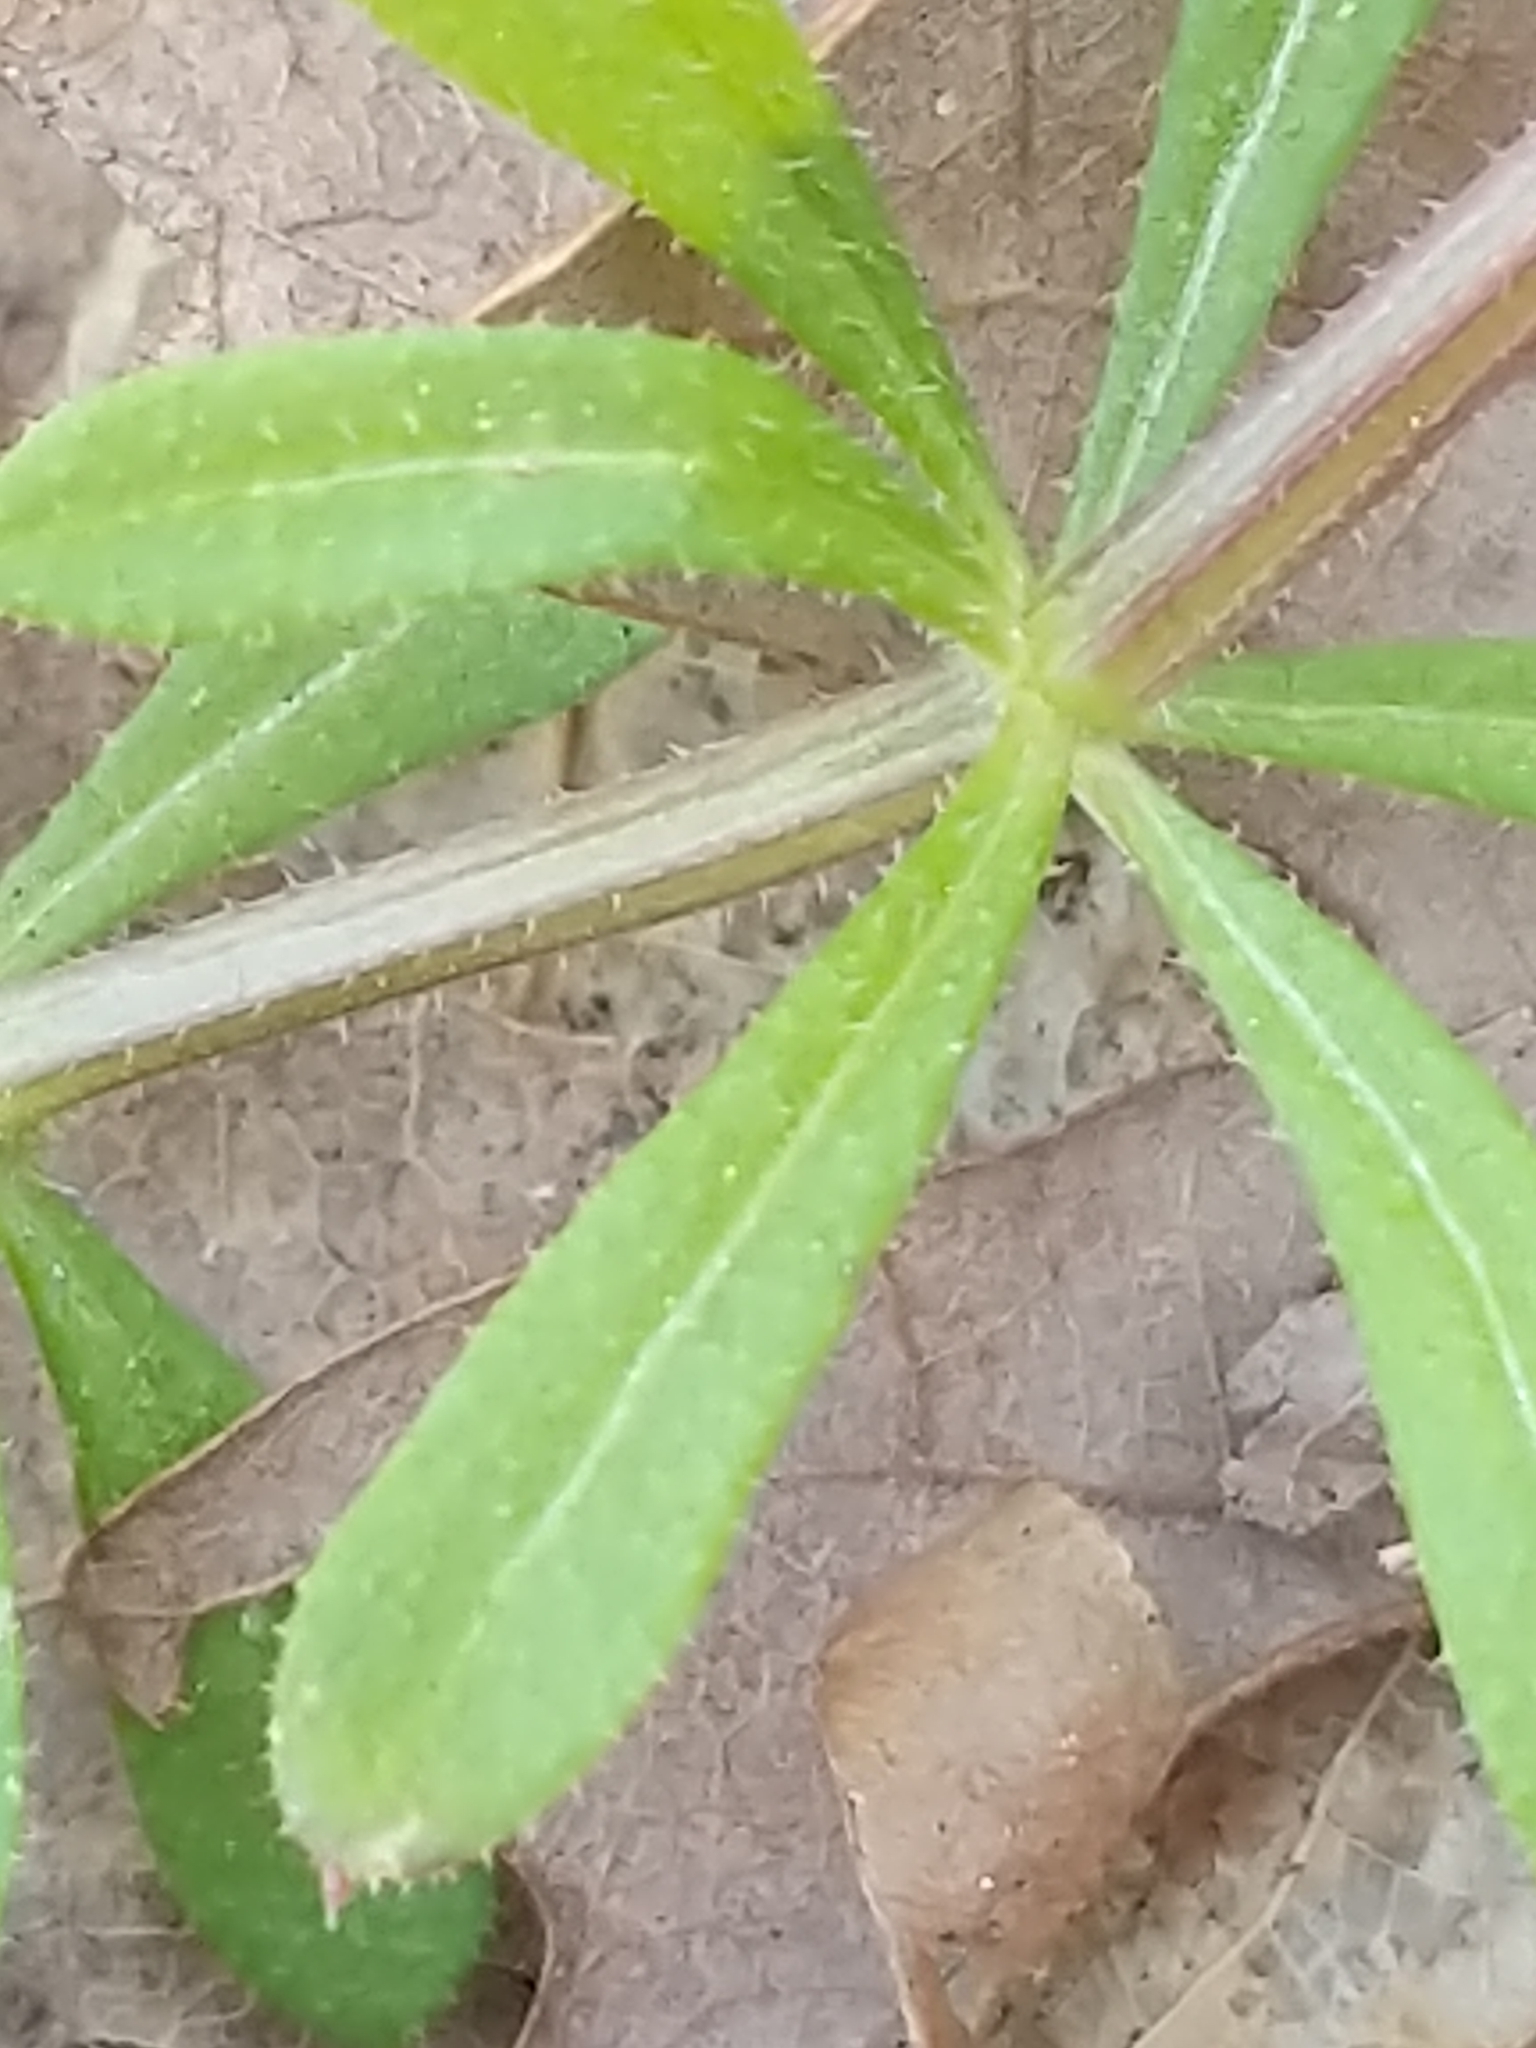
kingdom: Plantae
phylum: Tracheophyta
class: Magnoliopsida
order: Gentianales
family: Rubiaceae
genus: Galium
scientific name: Galium aparine
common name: Cleavers
